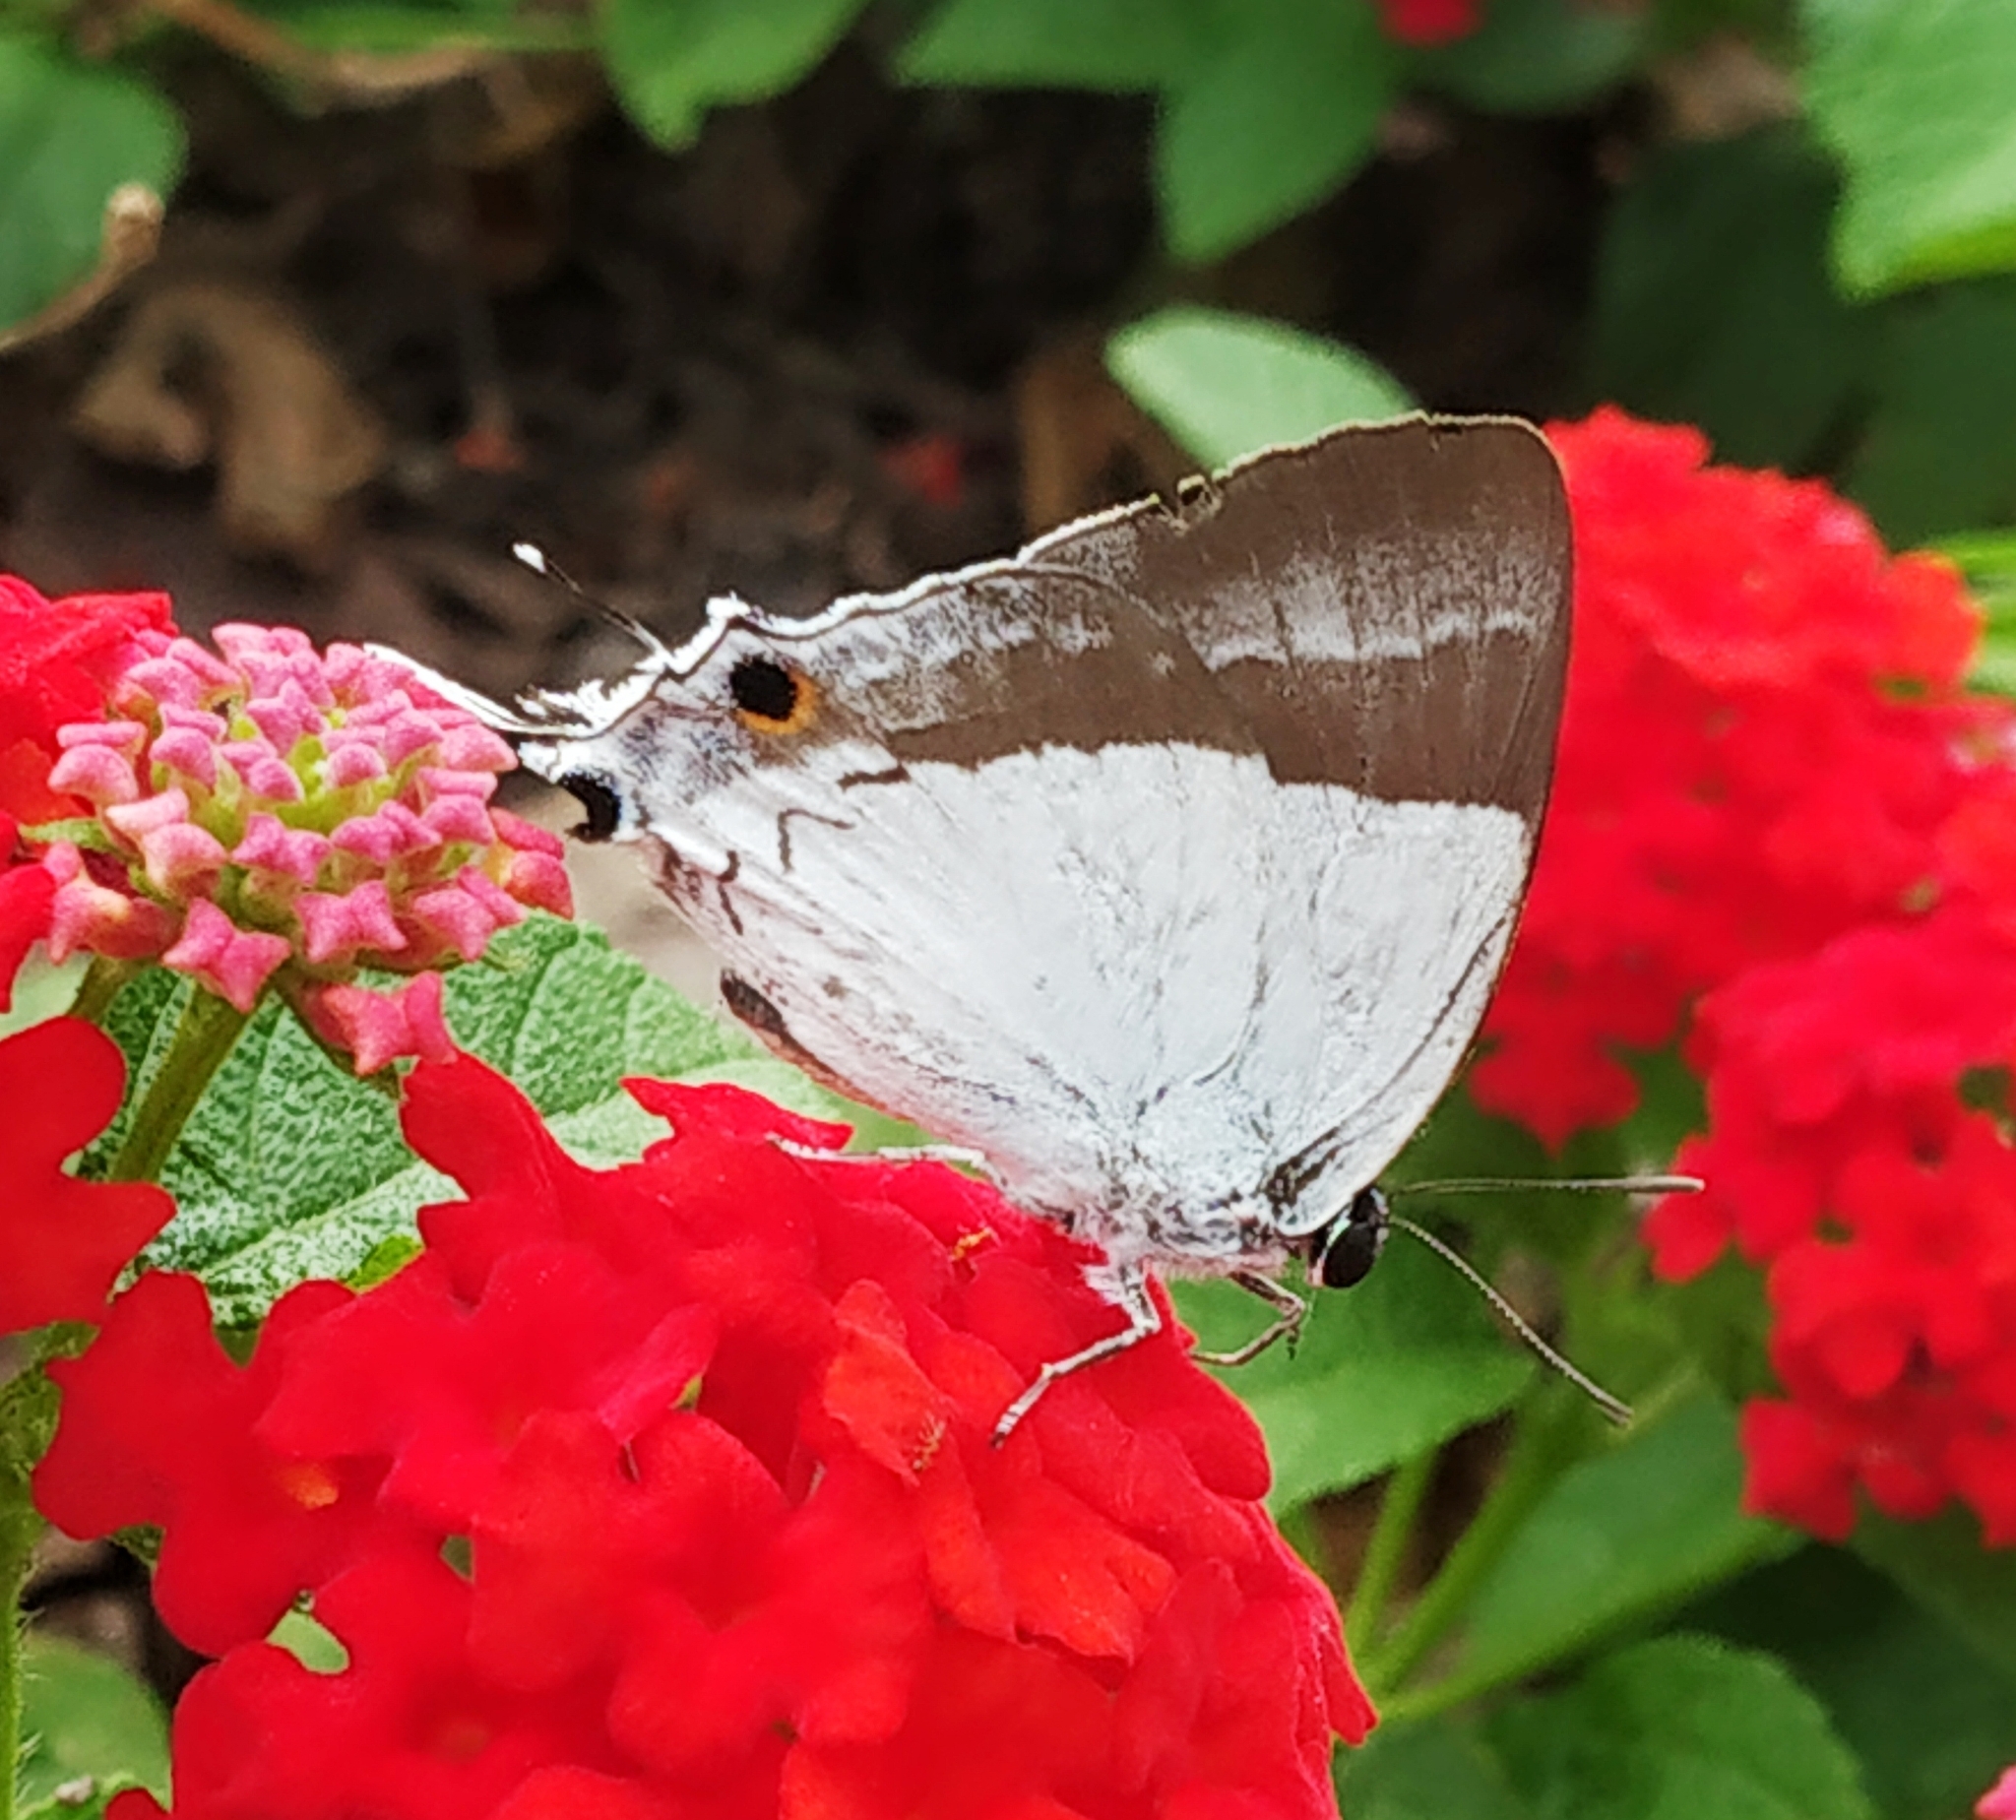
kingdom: Animalia
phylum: Arthropoda
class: Insecta
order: Lepidoptera
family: Hesperiidae
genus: Rachana
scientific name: Rachana jalindra
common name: Banded royal
